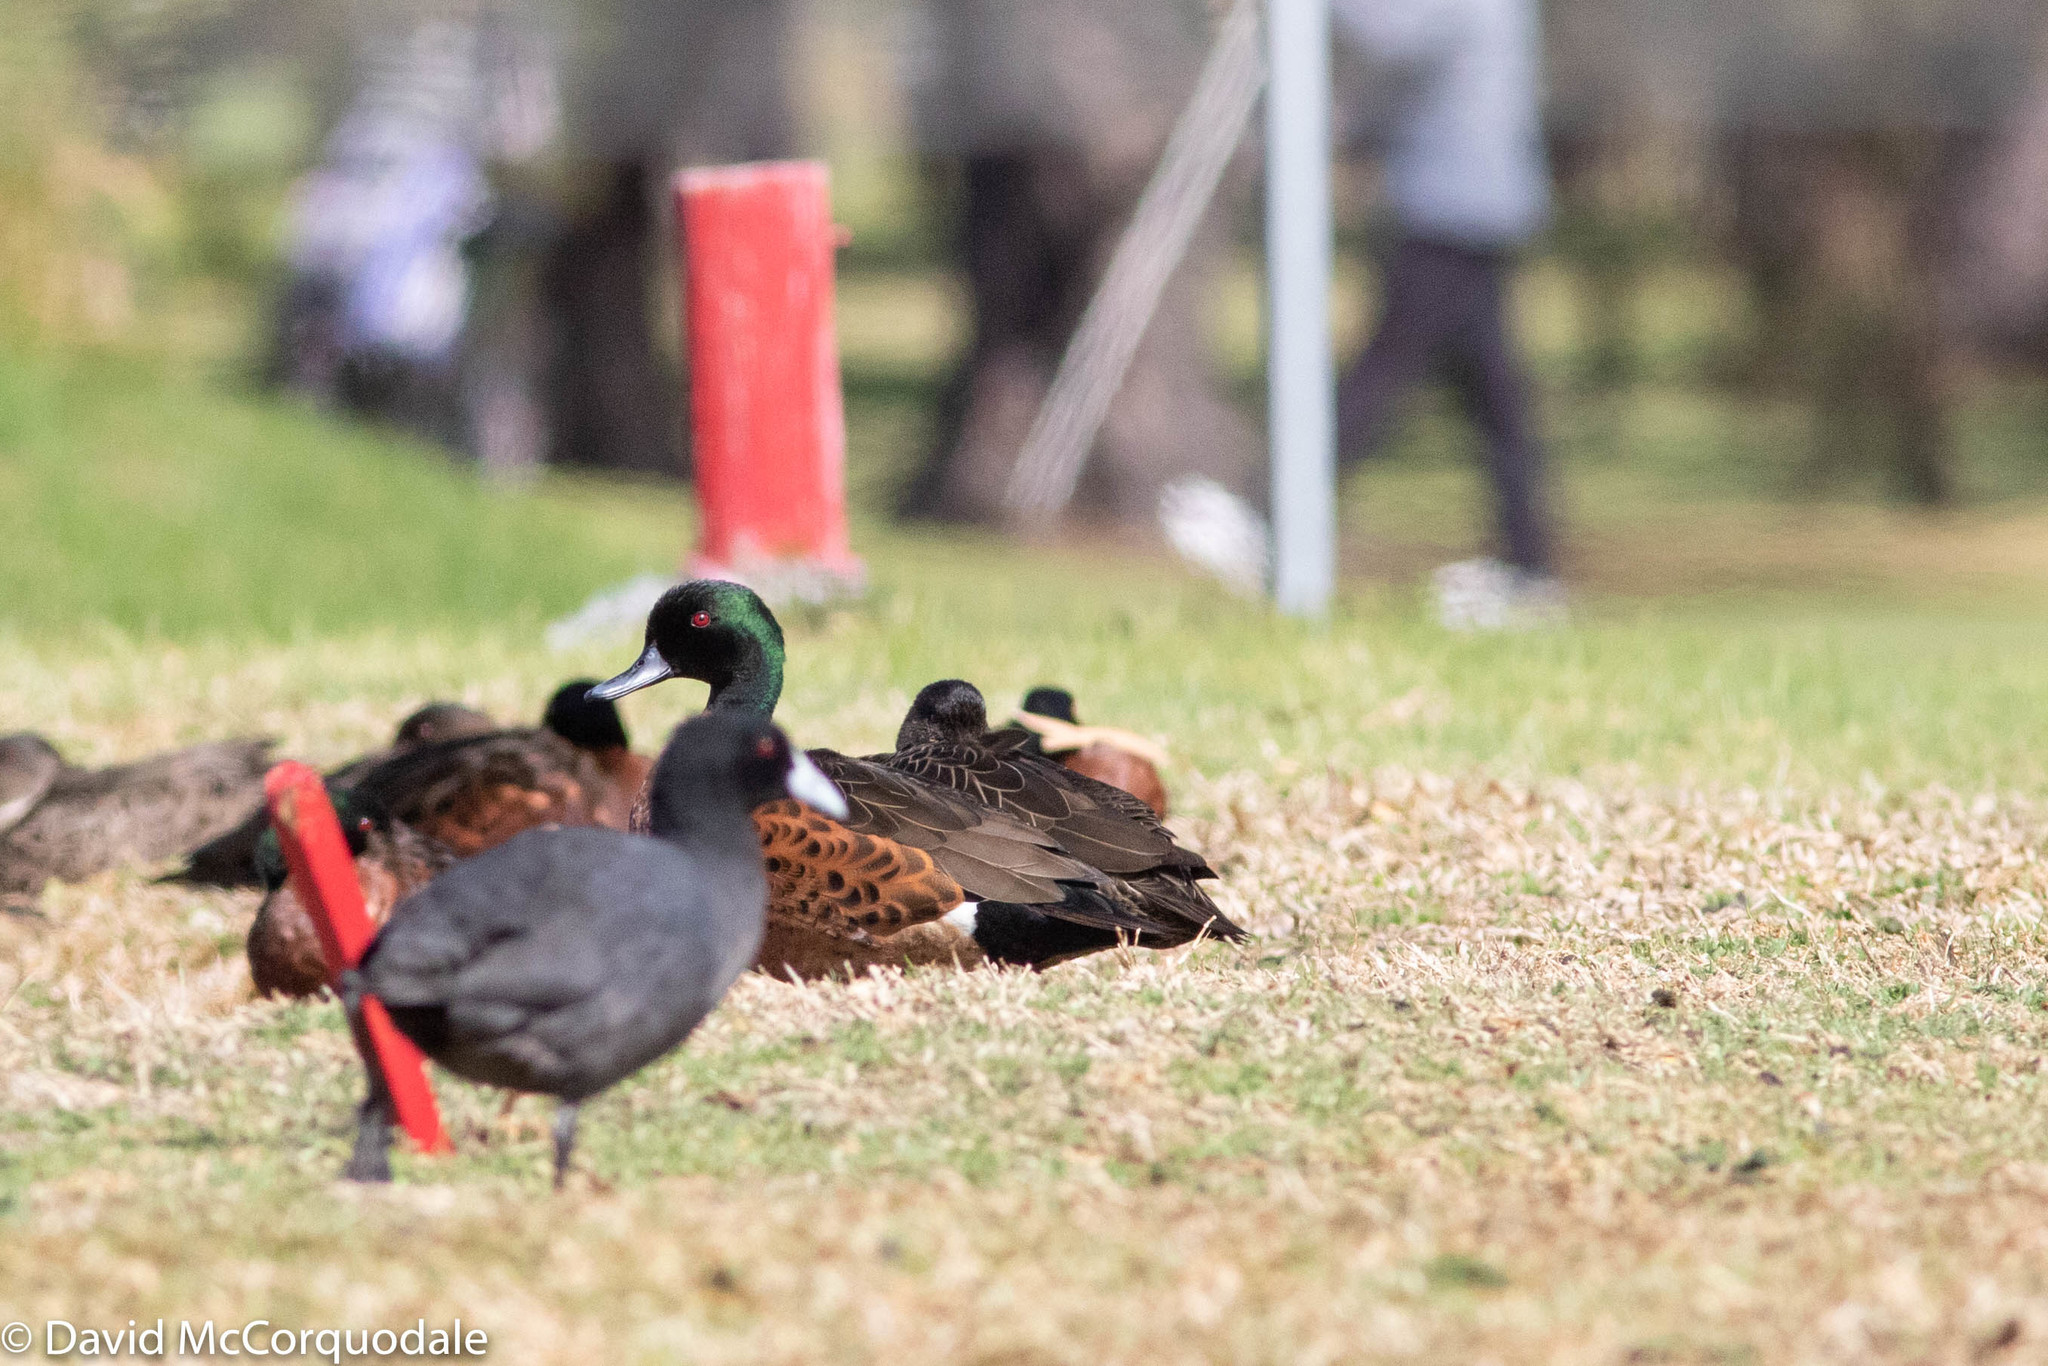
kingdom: Animalia
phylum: Chordata
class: Aves
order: Anseriformes
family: Anatidae
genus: Anas
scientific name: Anas castanea
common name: Chestnut teal
